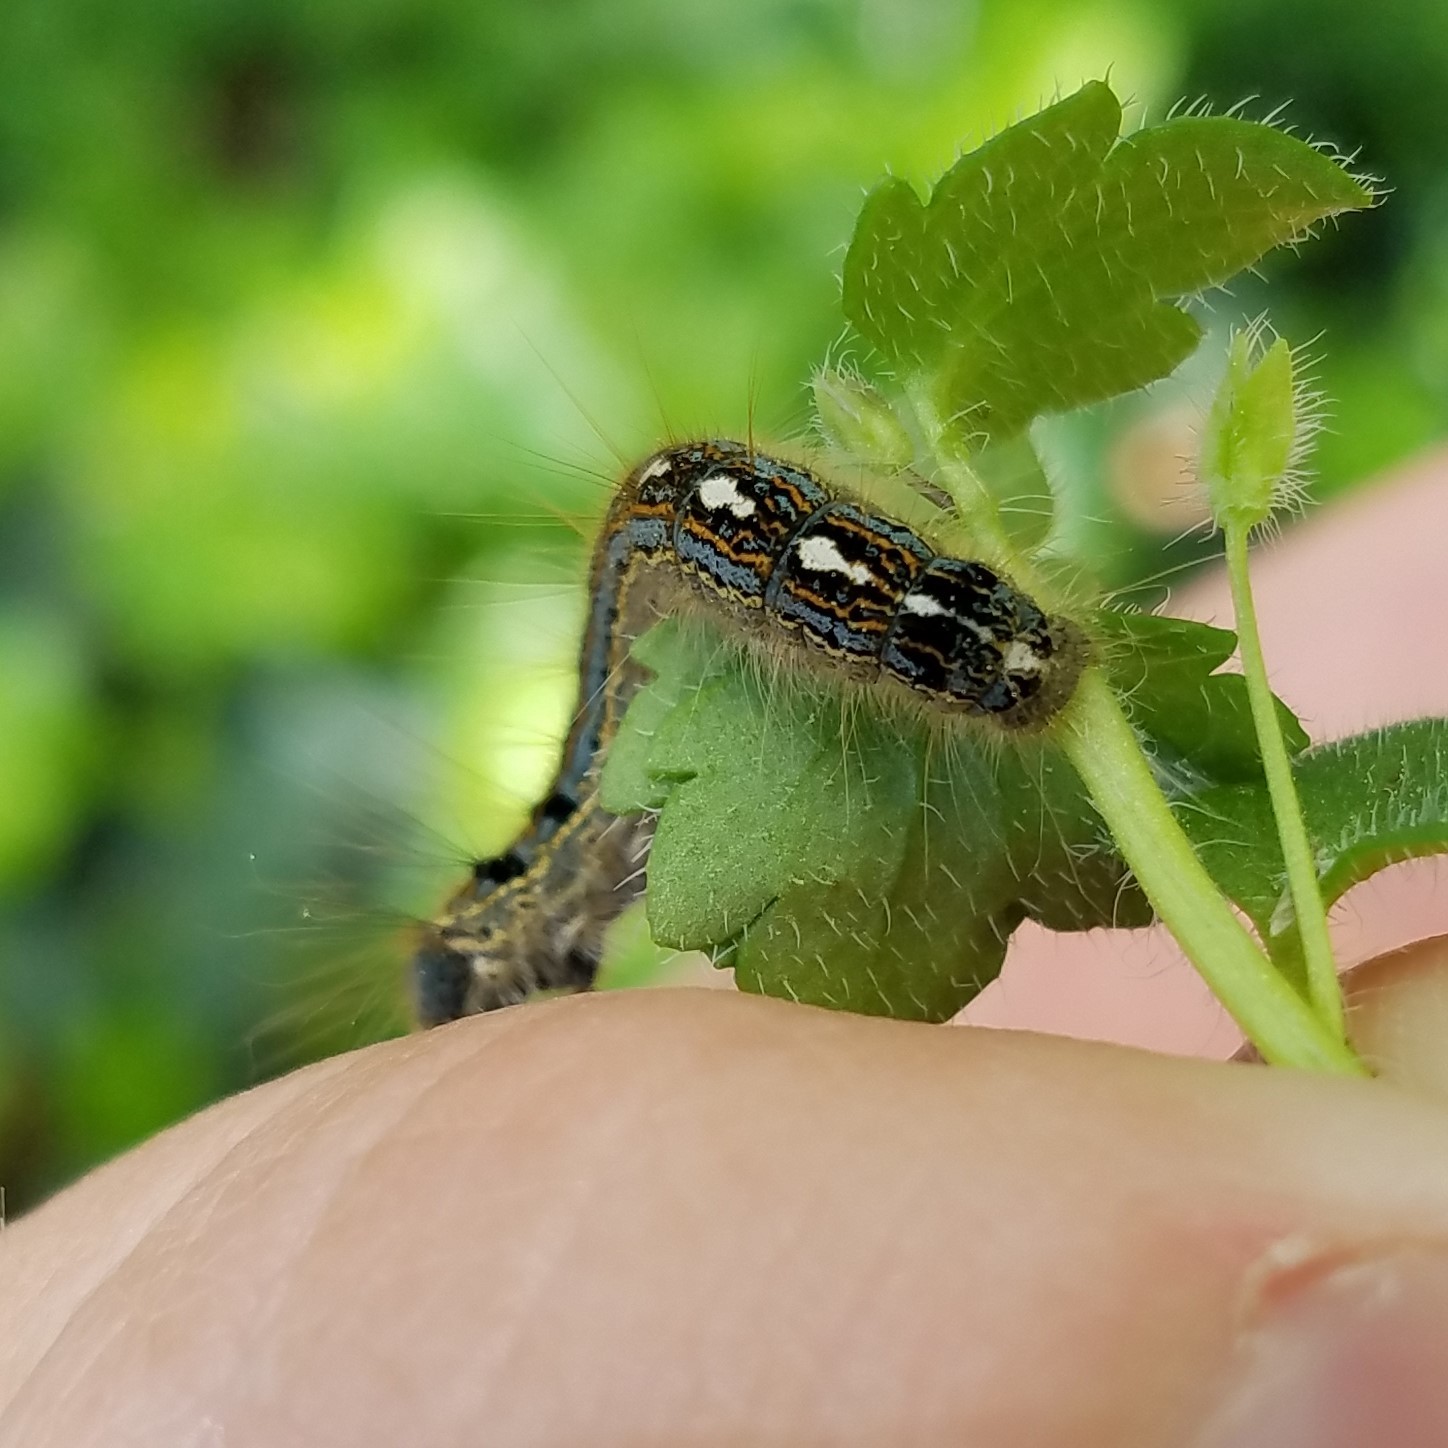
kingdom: Animalia
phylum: Arthropoda
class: Insecta
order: Lepidoptera
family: Lasiocampidae
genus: Malacosoma
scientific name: Malacosoma disstria
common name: Forest tent caterpillar
